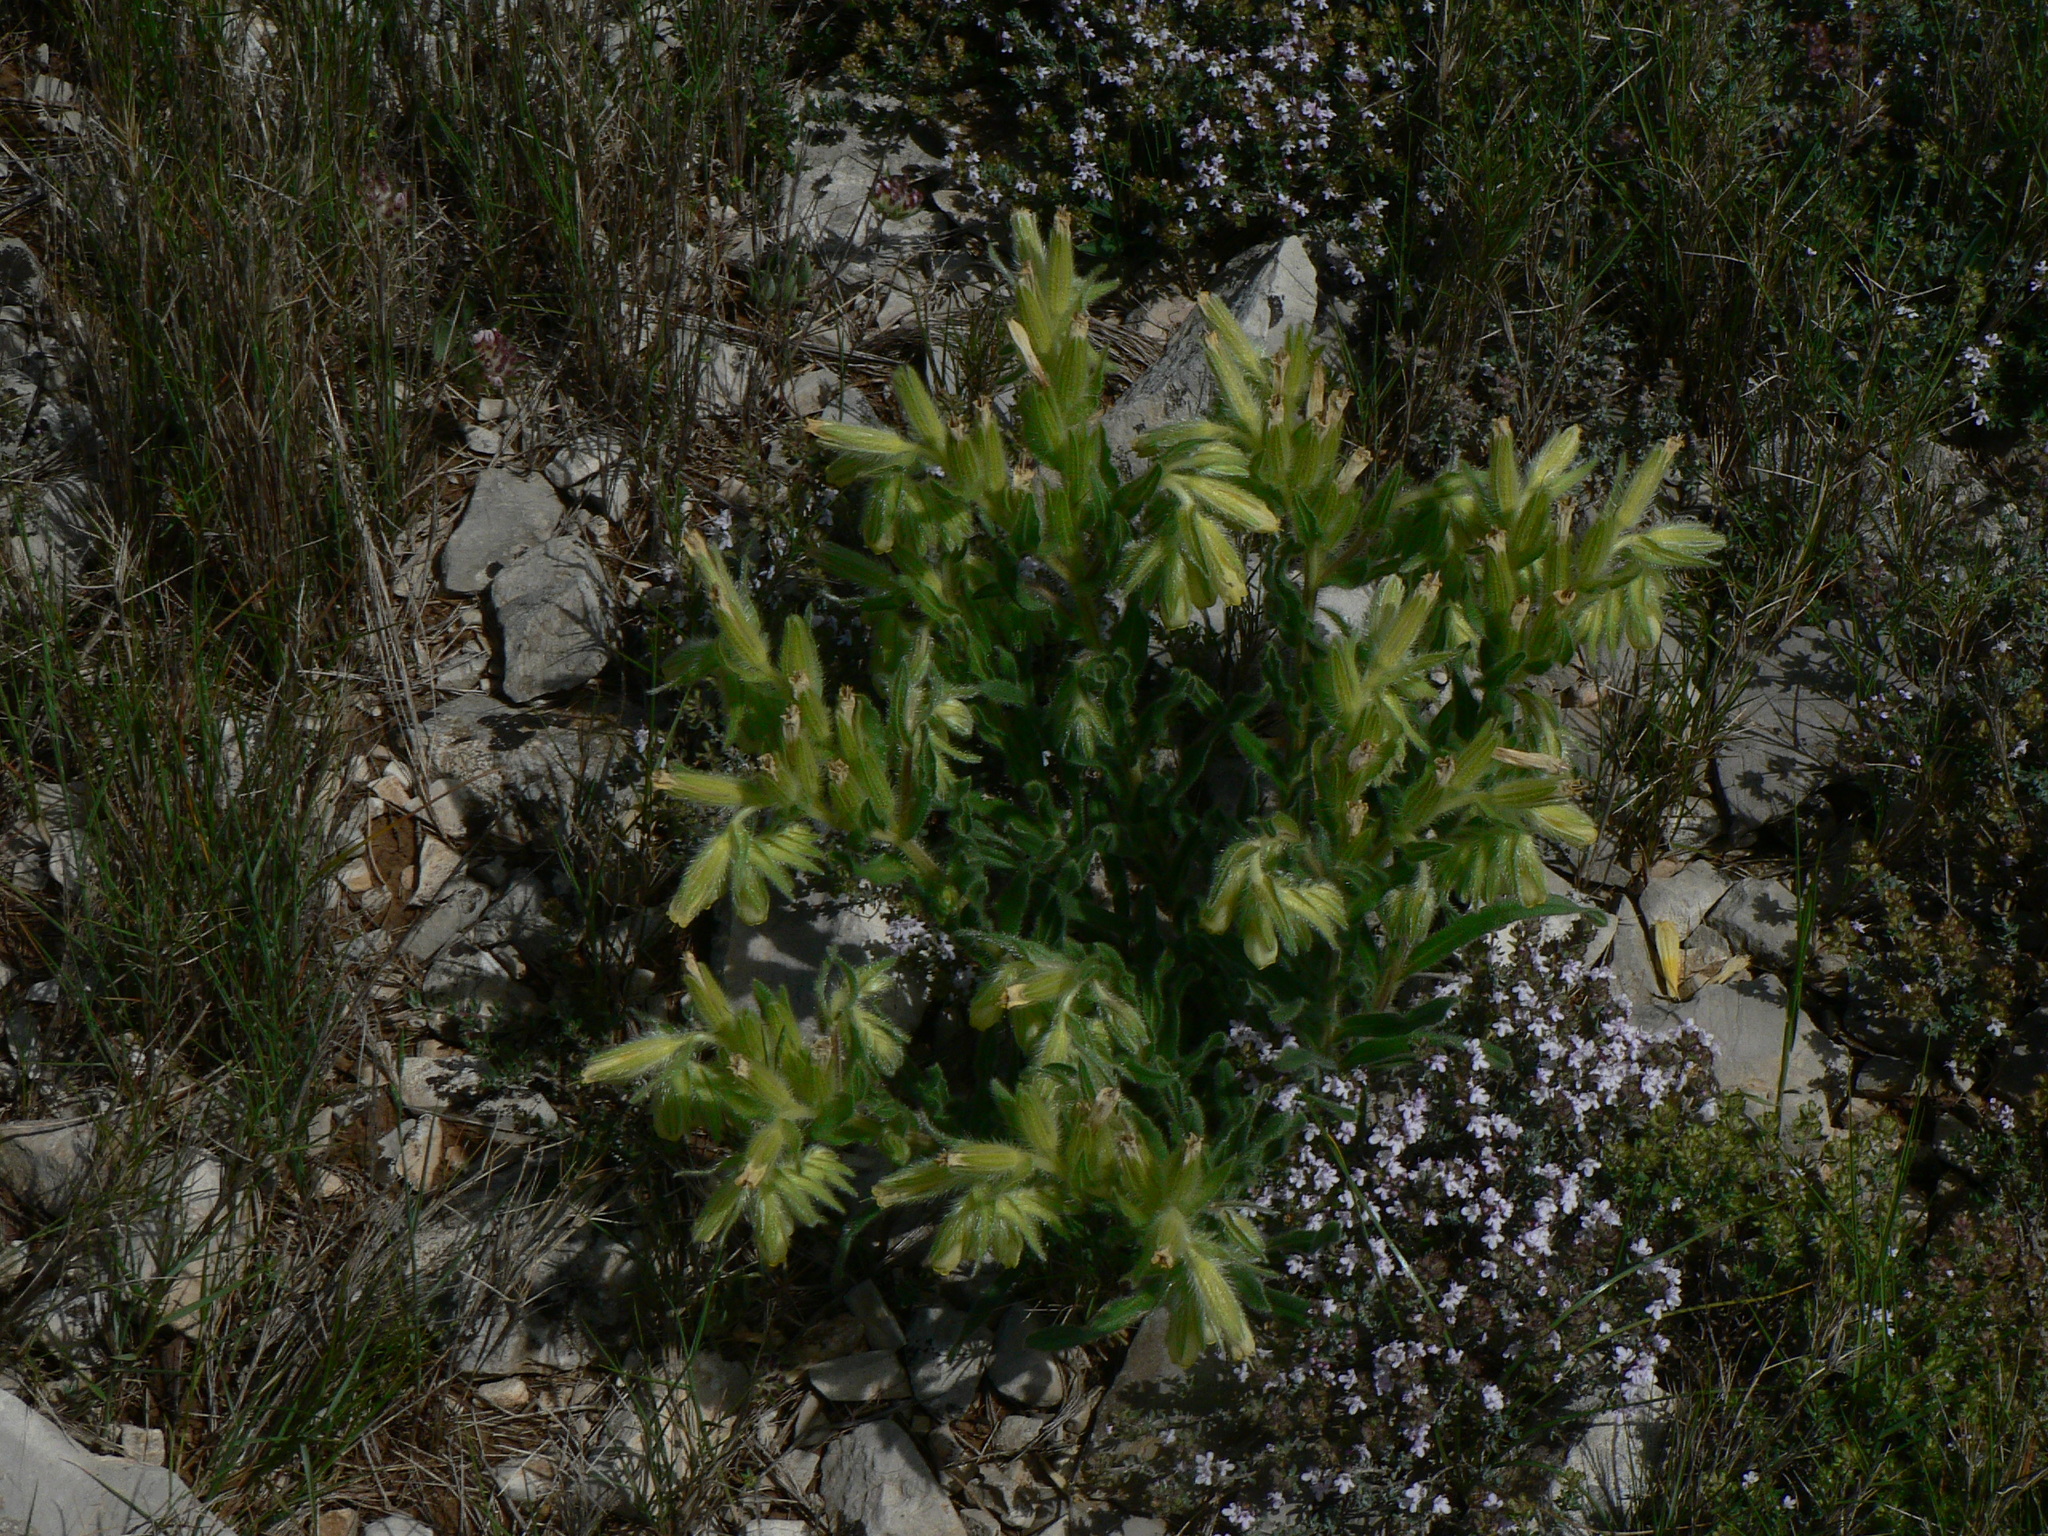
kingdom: Plantae
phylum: Tracheophyta
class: Magnoliopsida
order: Boraginales
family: Boraginaceae
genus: Onosma
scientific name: Onosma tricerosperma
